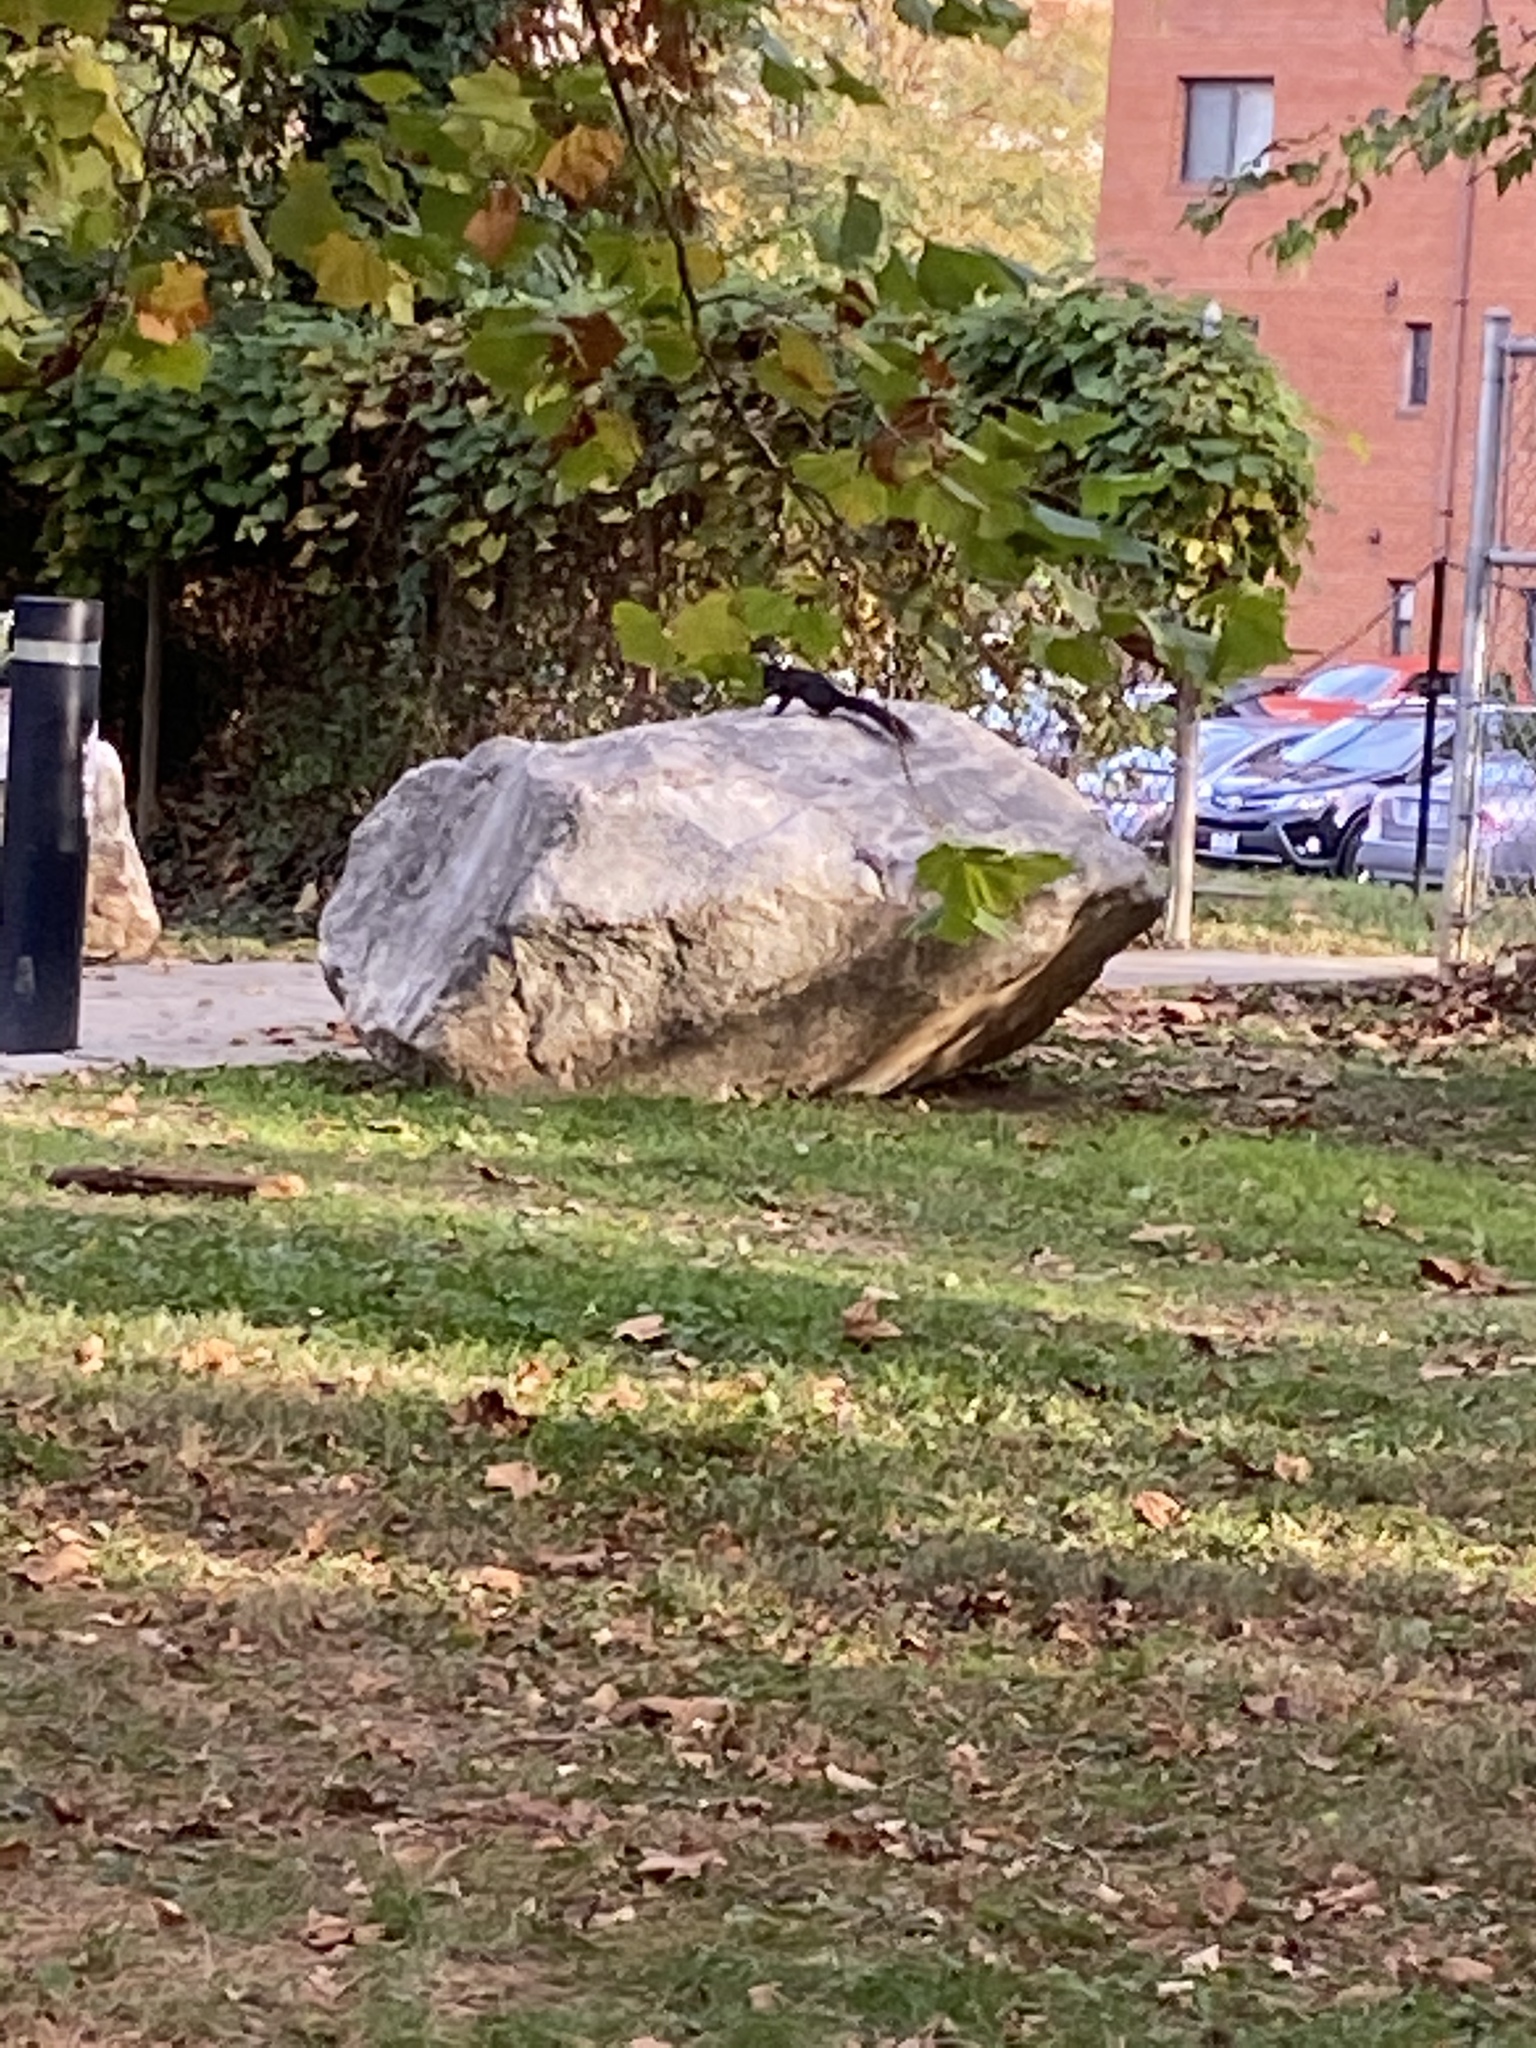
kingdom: Animalia
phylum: Chordata
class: Mammalia
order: Rodentia
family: Sciuridae
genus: Sciurus
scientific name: Sciurus carolinensis
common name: Eastern gray squirrel
